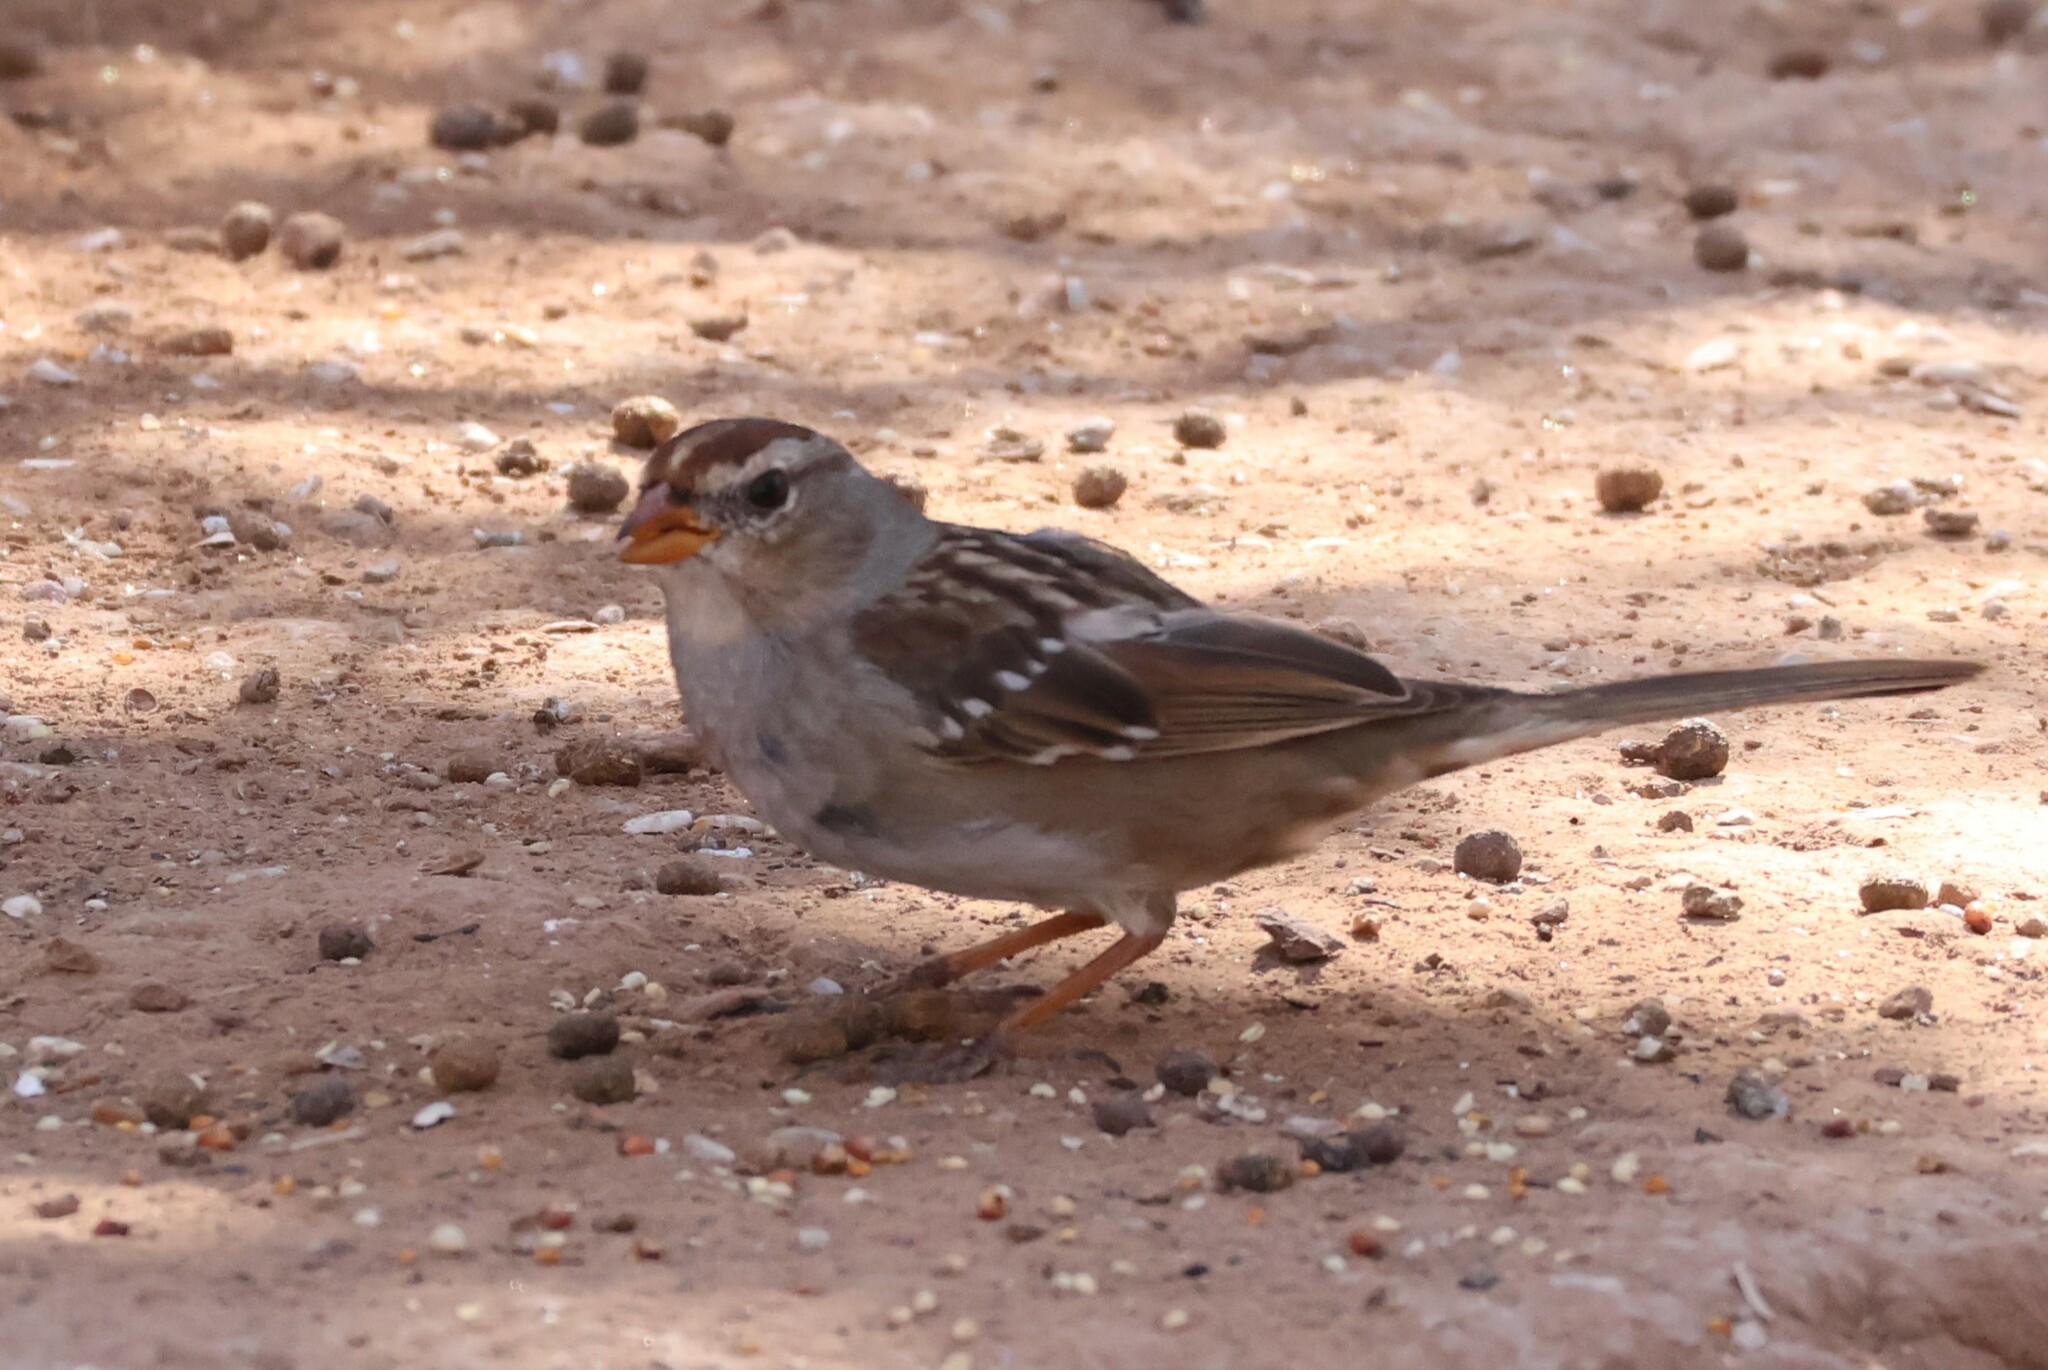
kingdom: Animalia
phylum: Chordata
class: Aves
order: Passeriformes
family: Passerellidae
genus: Zonotrichia
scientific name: Zonotrichia leucophrys
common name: White-crowned sparrow
